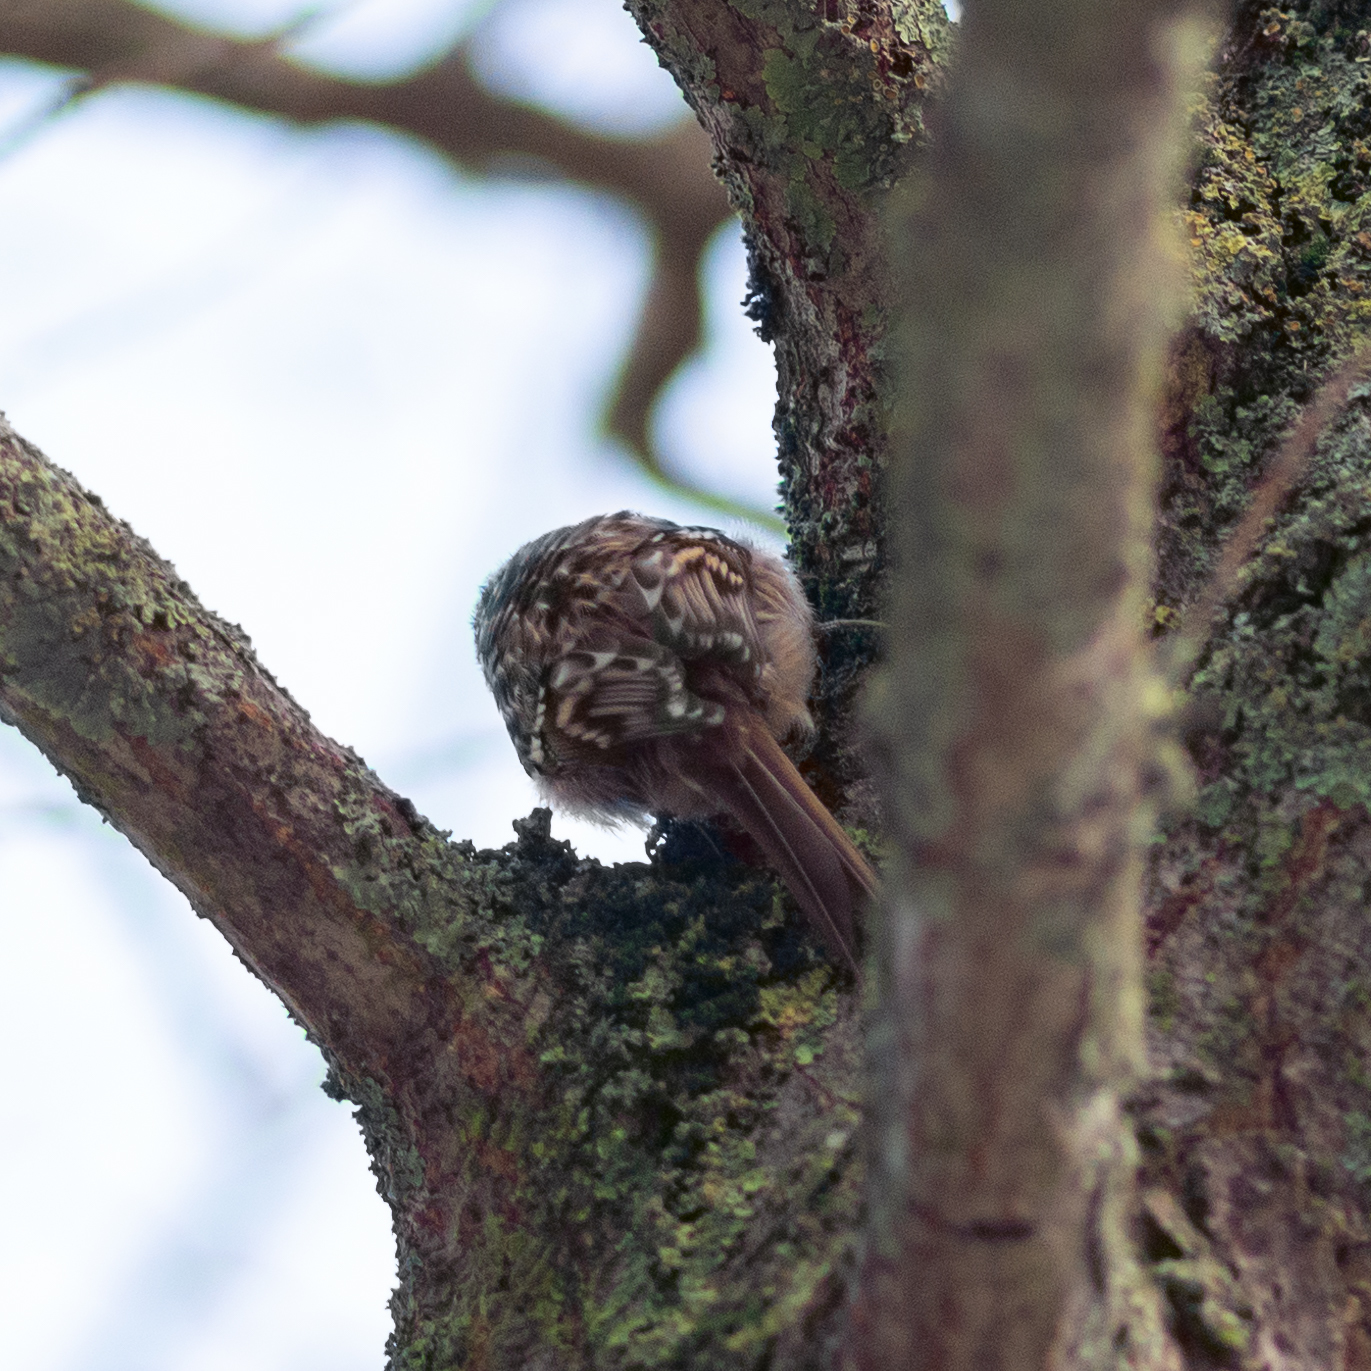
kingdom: Animalia
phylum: Chordata
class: Aves
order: Passeriformes
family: Certhiidae
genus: Certhia
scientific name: Certhia brachydactyla
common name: Short-toed treecreeper
